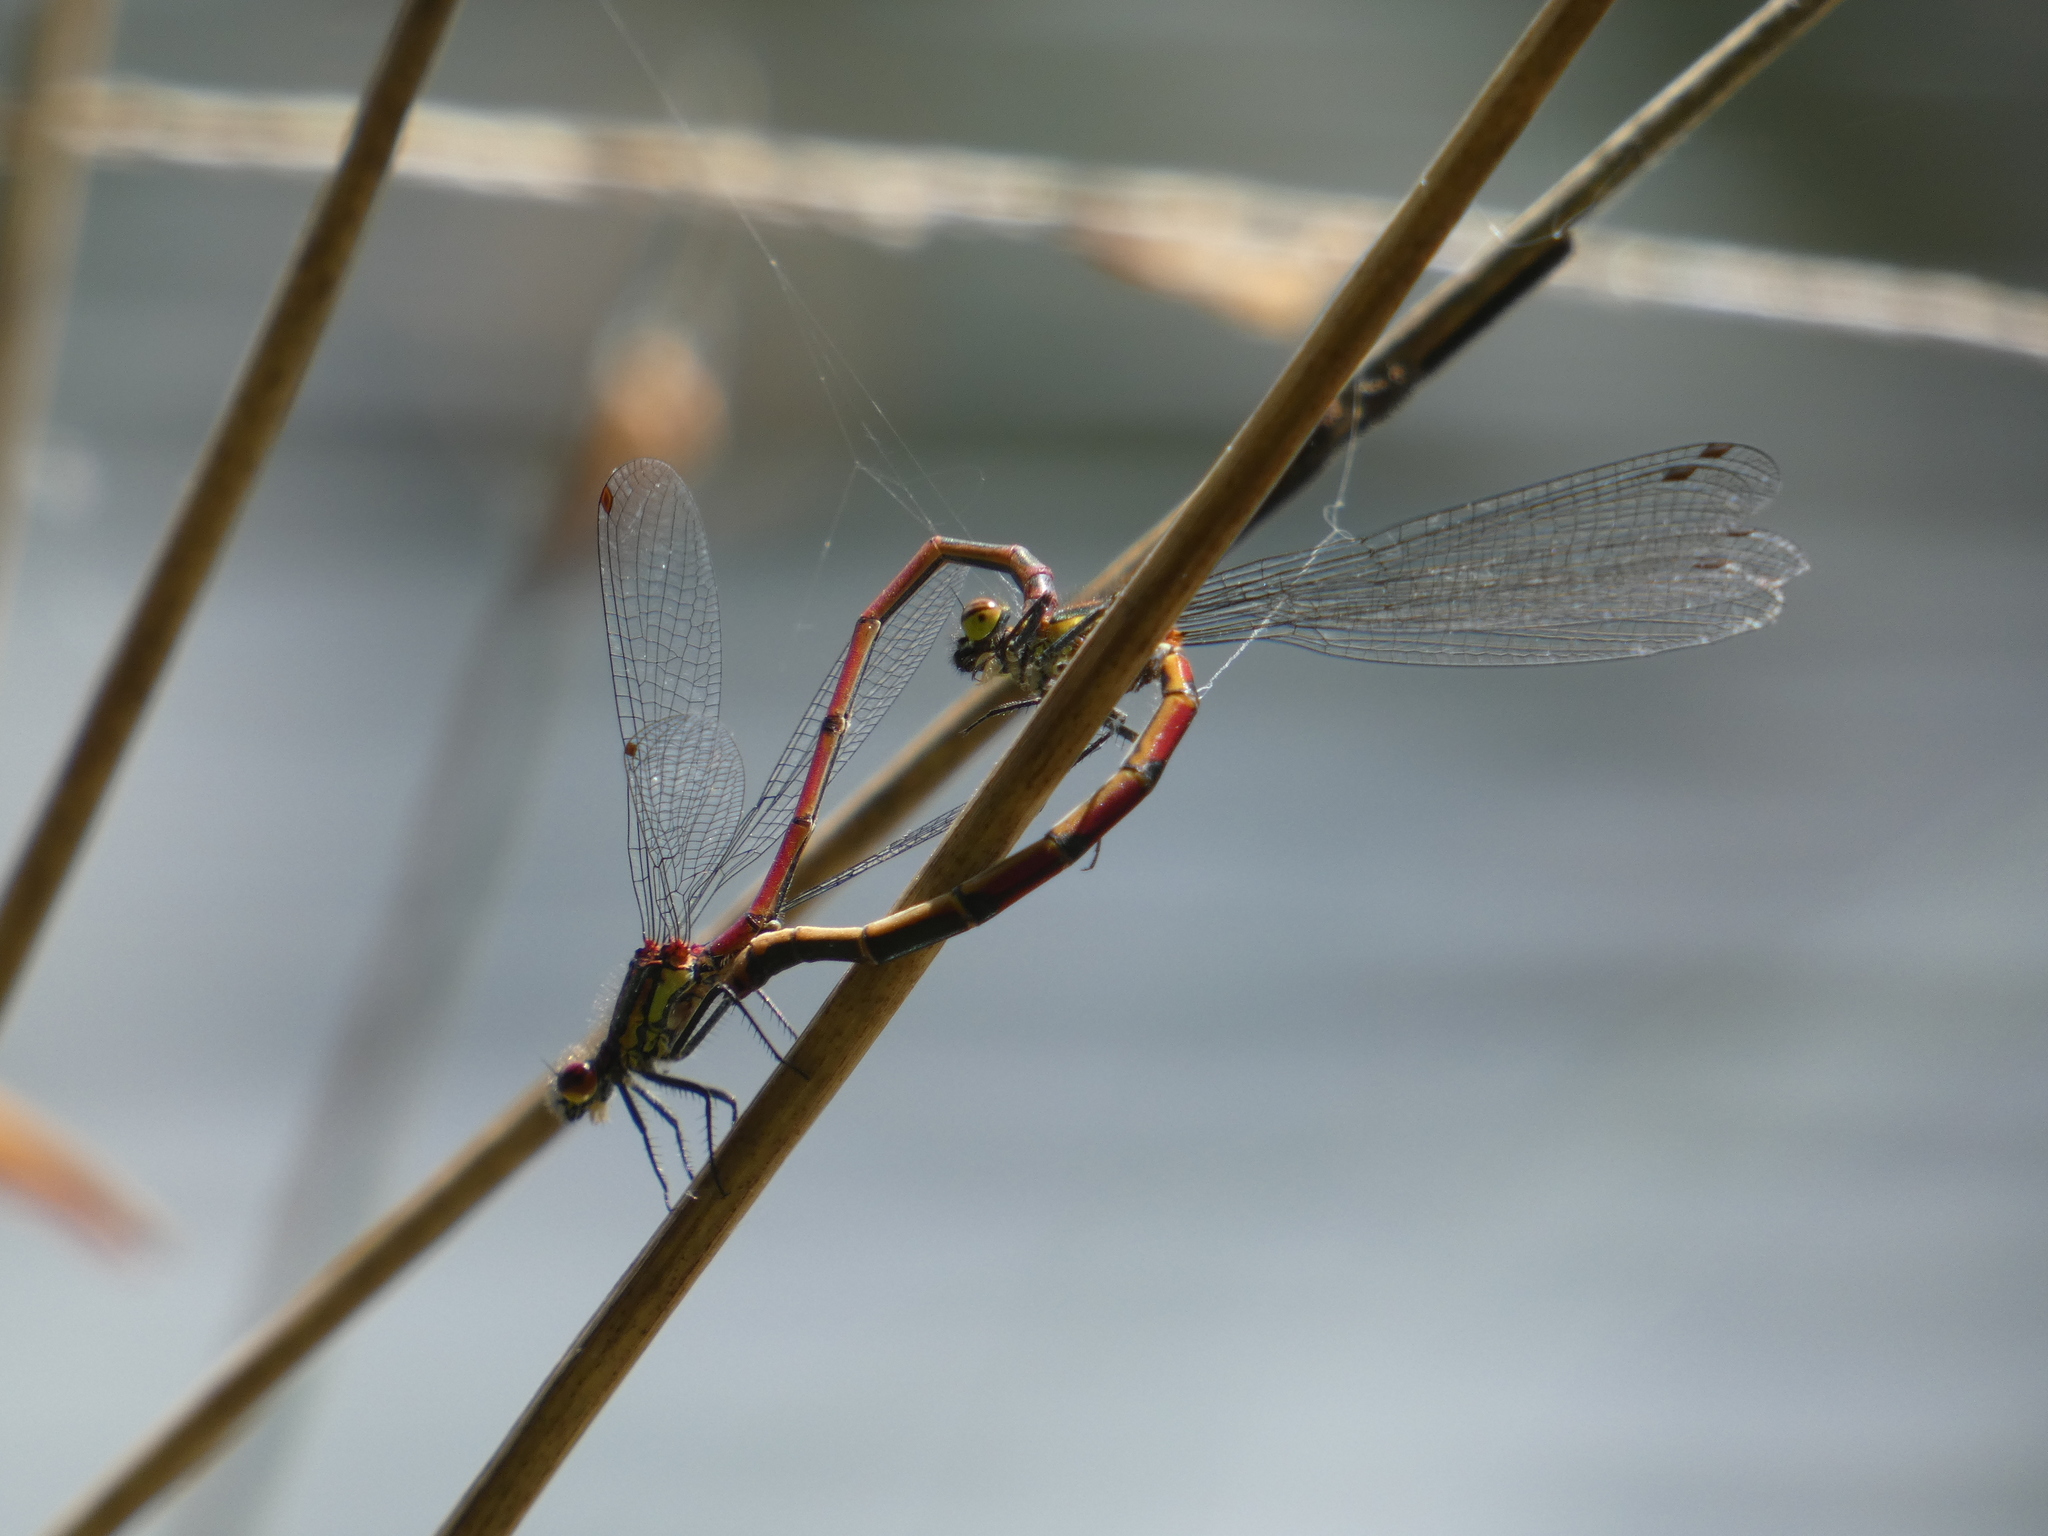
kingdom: Animalia
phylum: Arthropoda
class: Insecta
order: Odonata
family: Coenagrionidae
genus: Pyrrhosoma
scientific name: Pyrrhosoma nymphula
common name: Large red damsel
